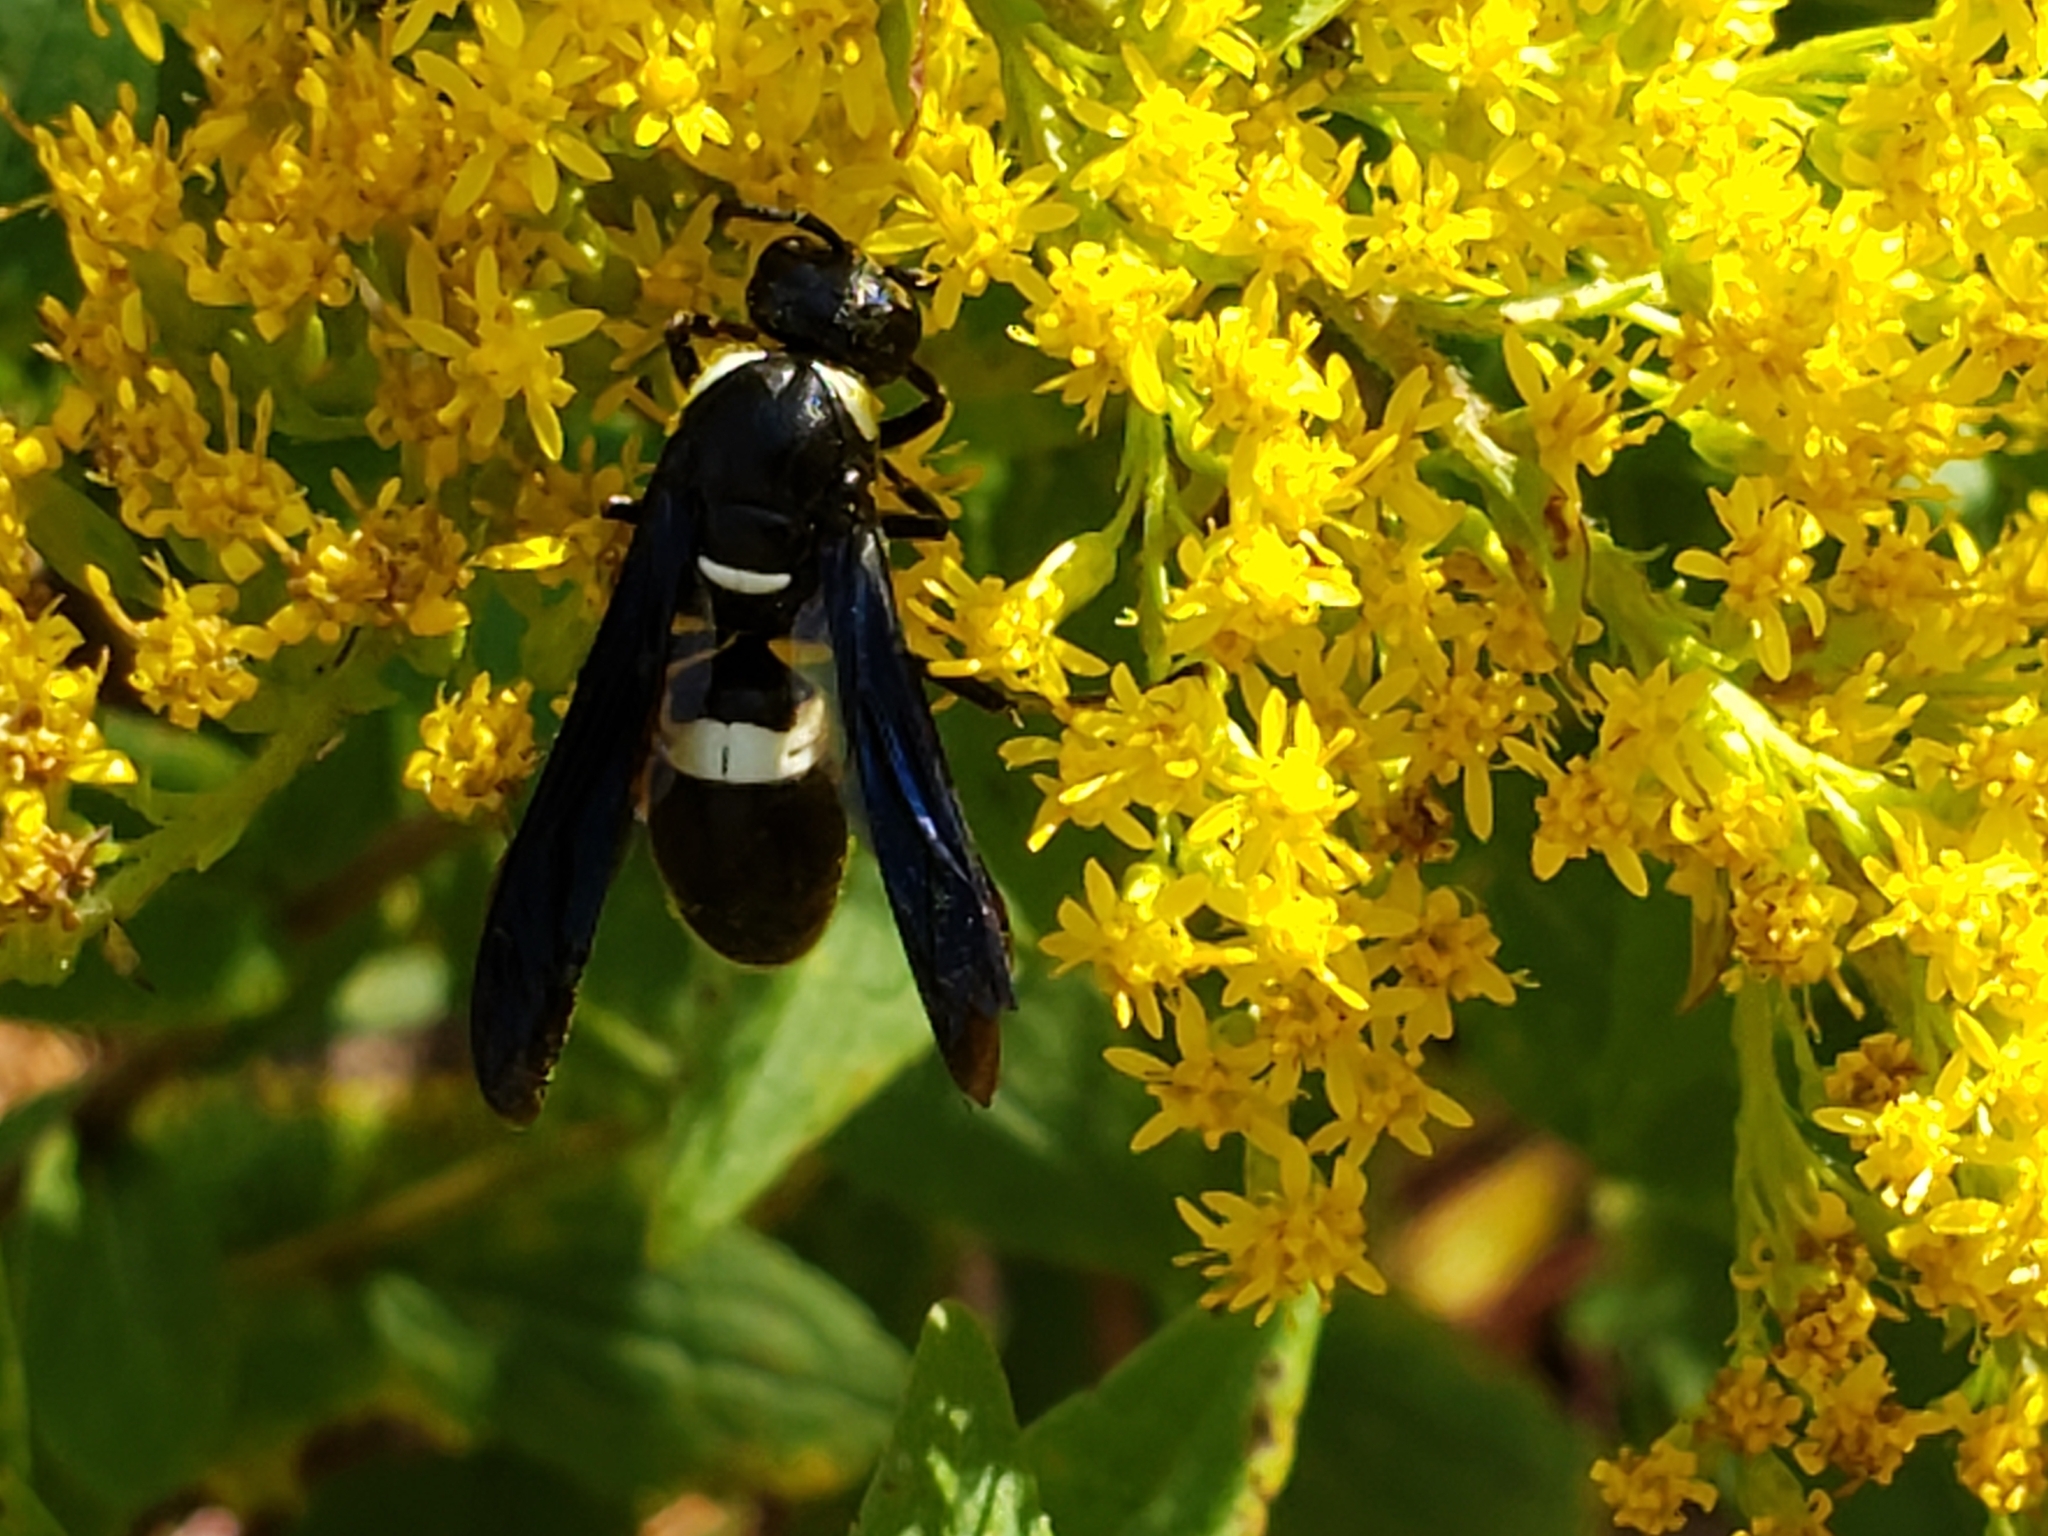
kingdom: Animalia
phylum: Arthropoda
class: Insecta
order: Hymenoptera
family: Eumenidae
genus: Monobia
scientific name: Monobia quadridens
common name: Four-toothed mason wasp
